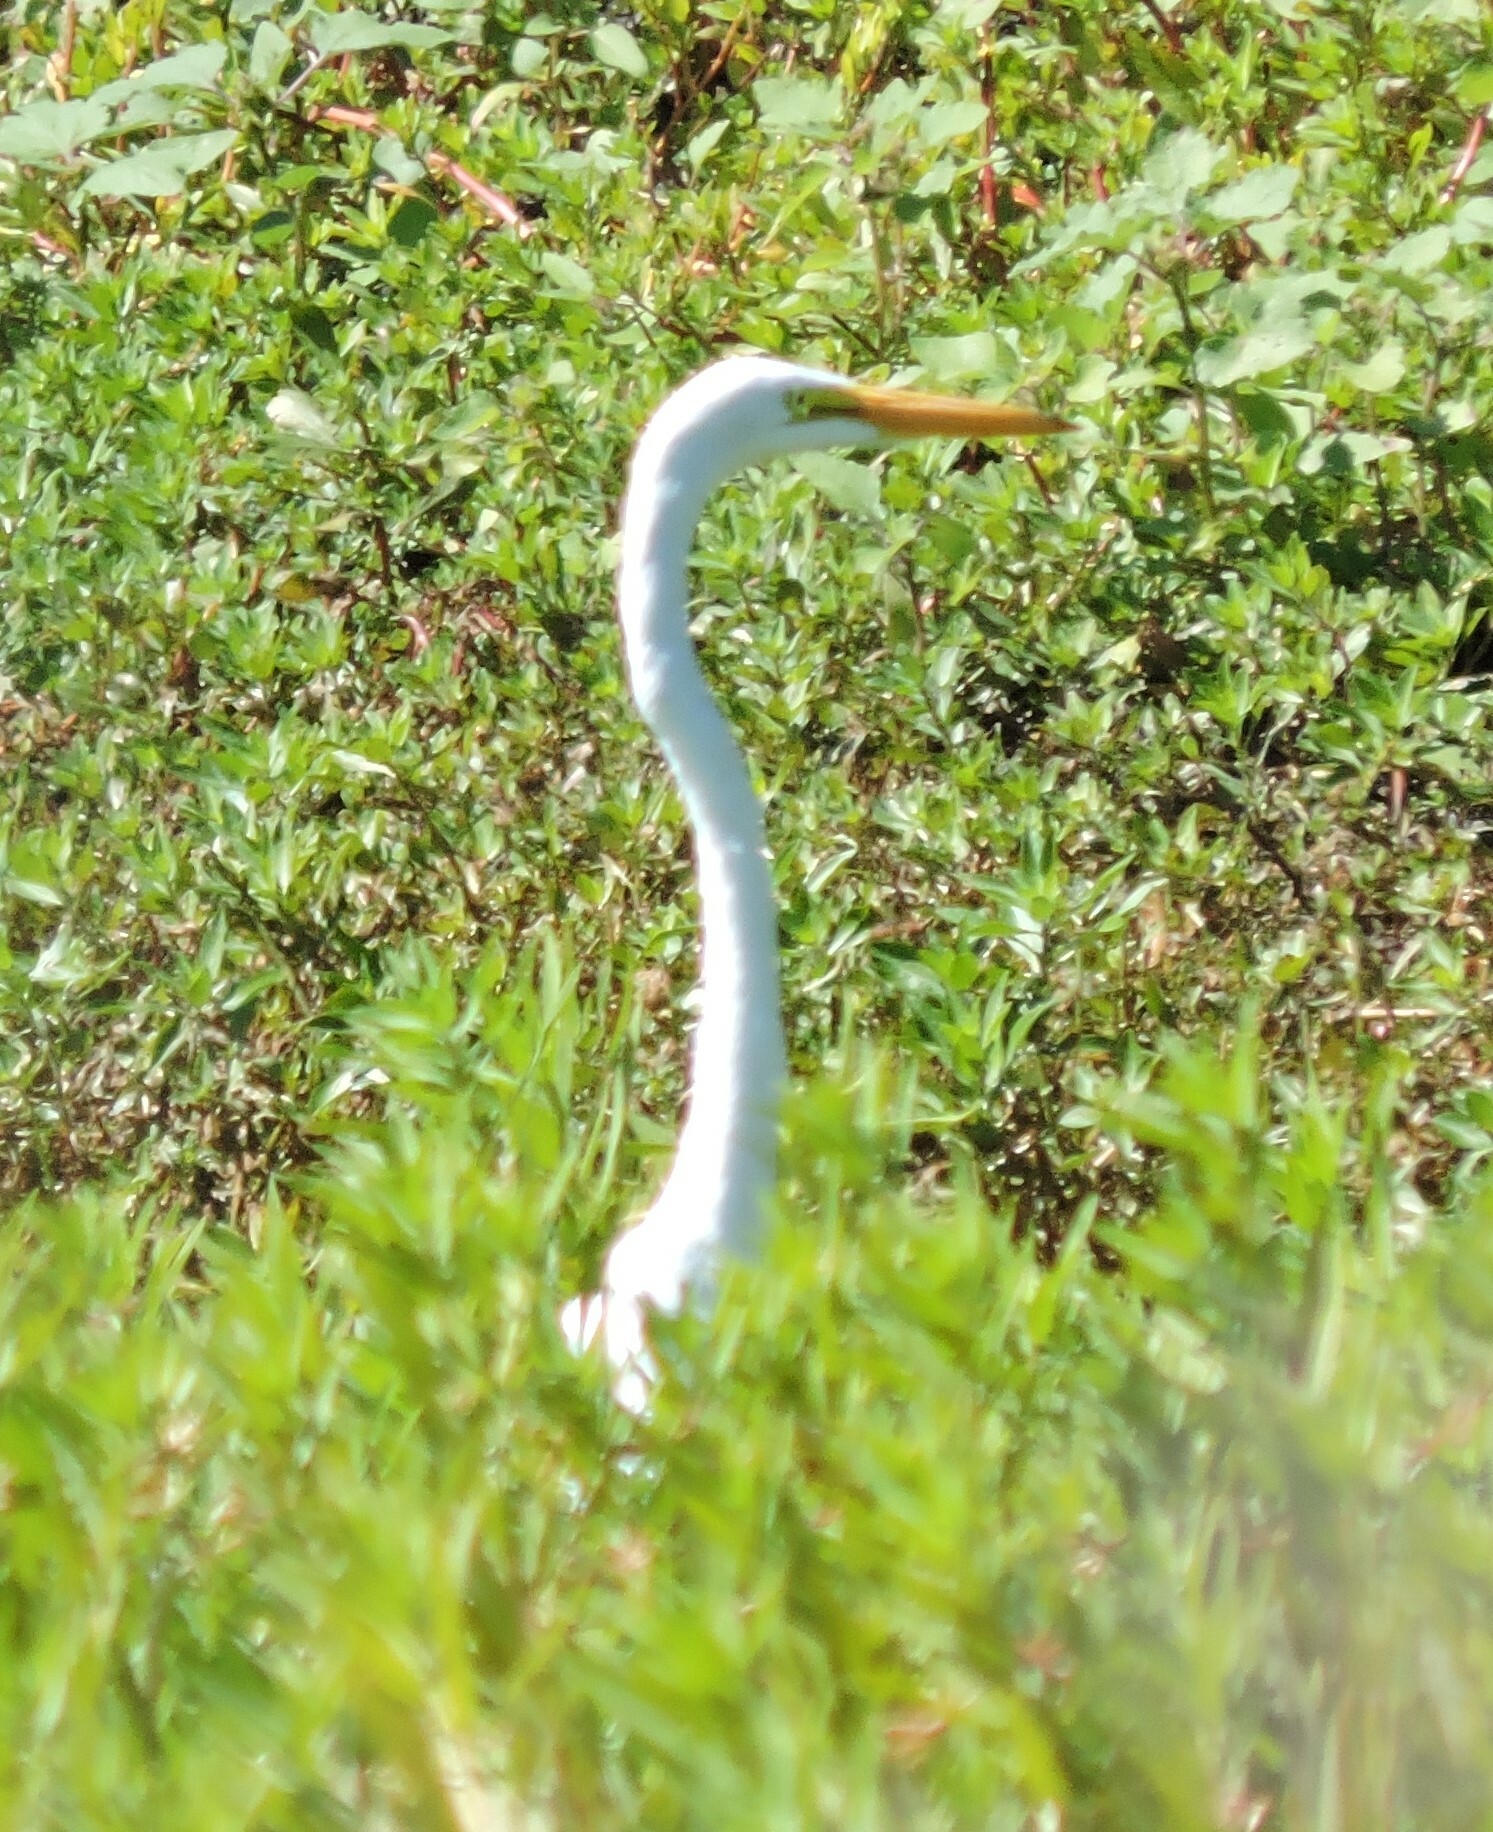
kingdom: Animalia
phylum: Chordata
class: Aves
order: Pelecaniformes
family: Ardeidae
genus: Ardea
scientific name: Ardea alba
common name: Great egret
